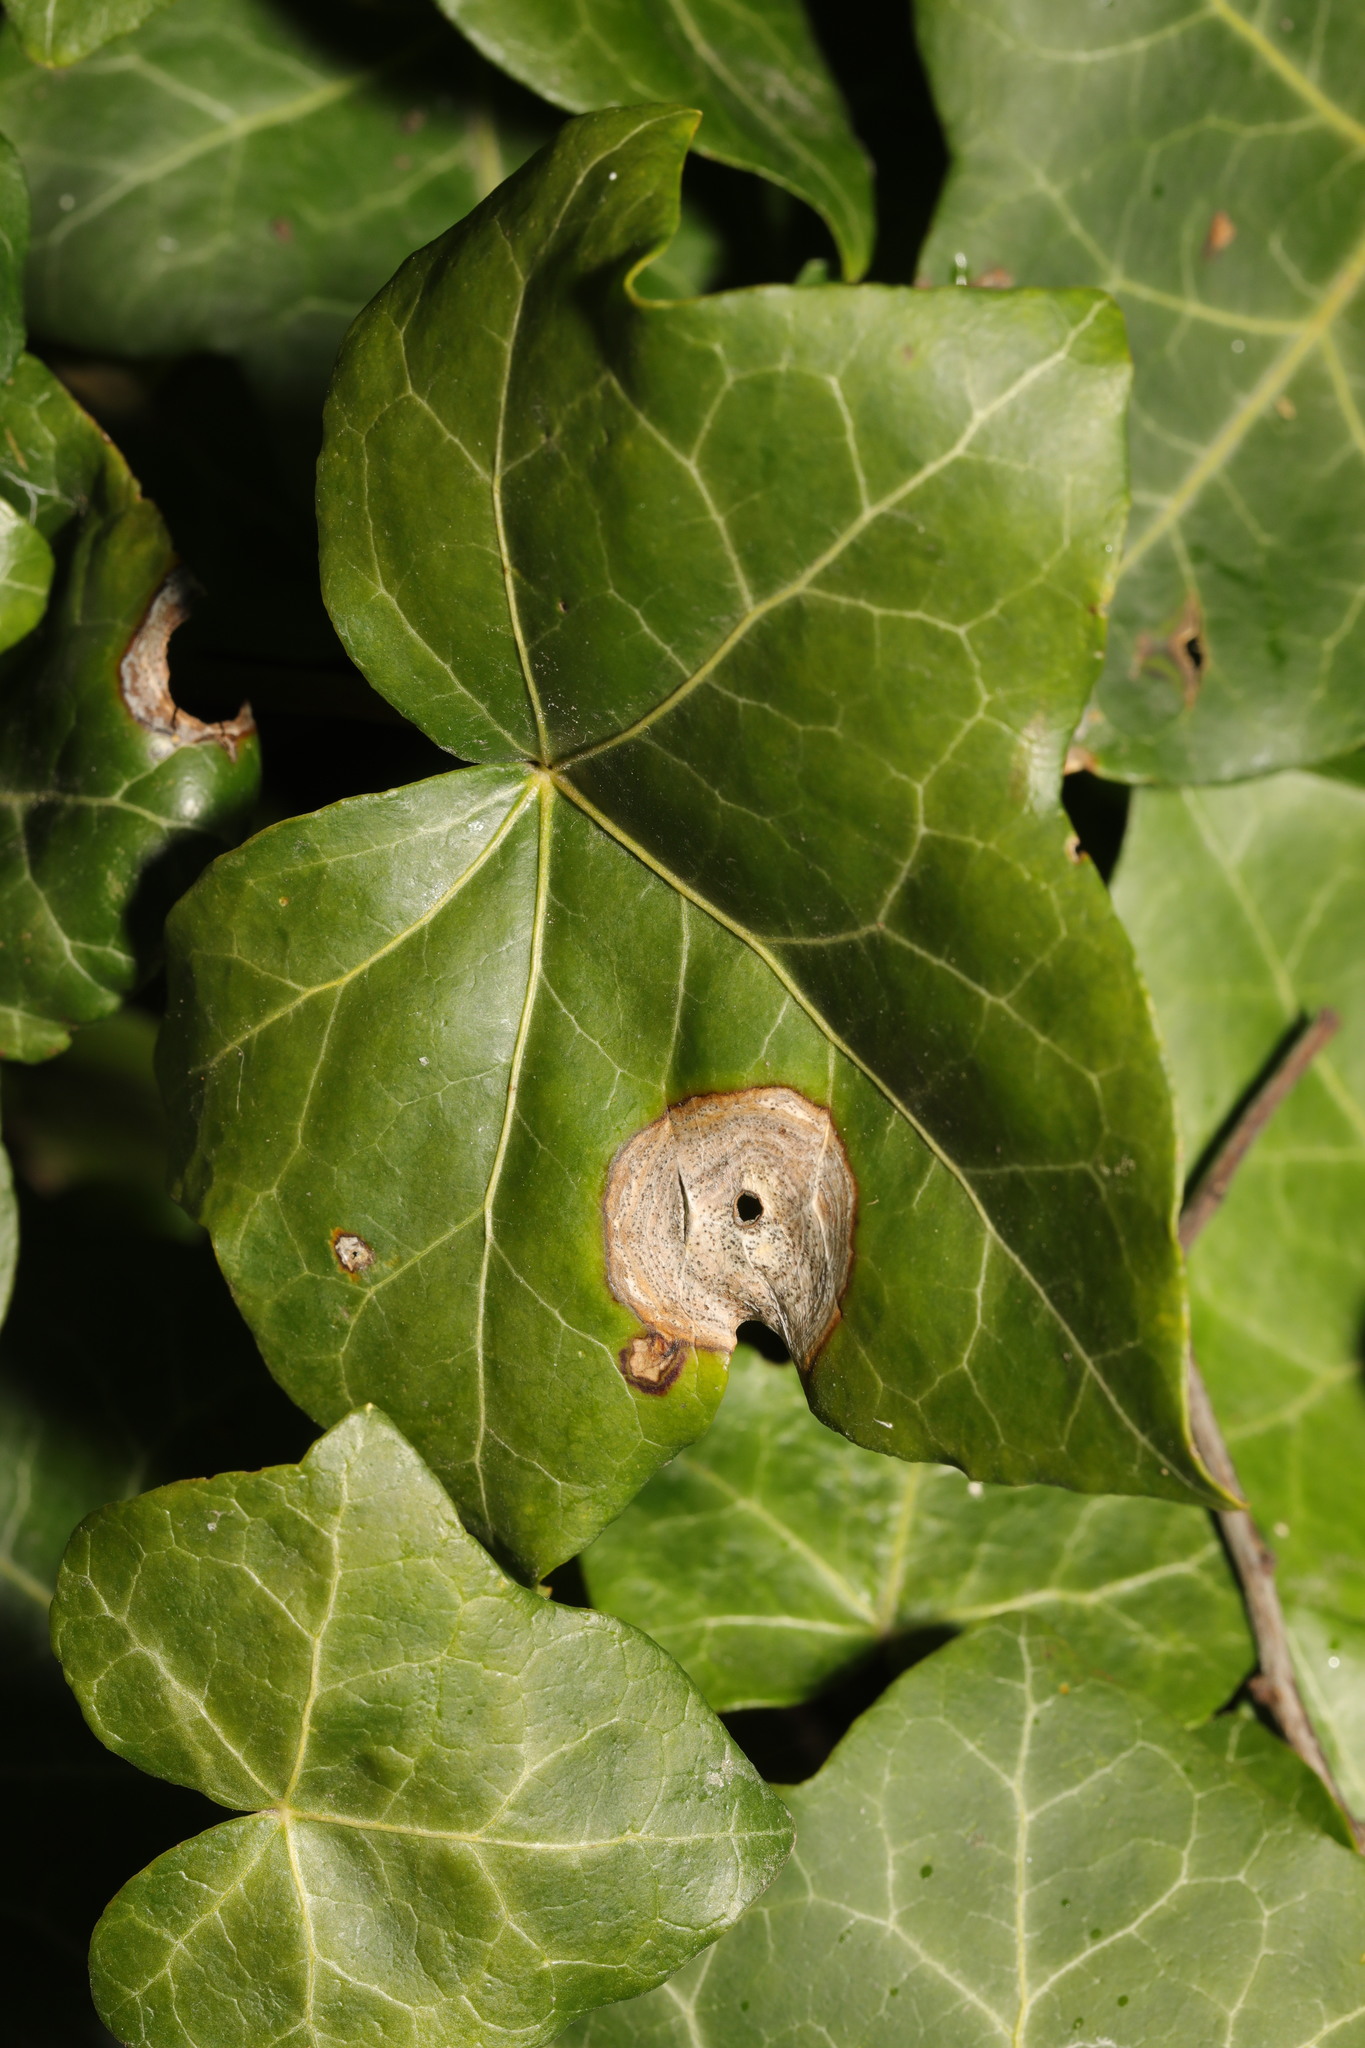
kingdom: Fungi
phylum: Ascomycota
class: Dothideomycetes
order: Pleosporales
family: Didymellaceae
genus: Boeremia
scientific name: Boeremia hedericola
